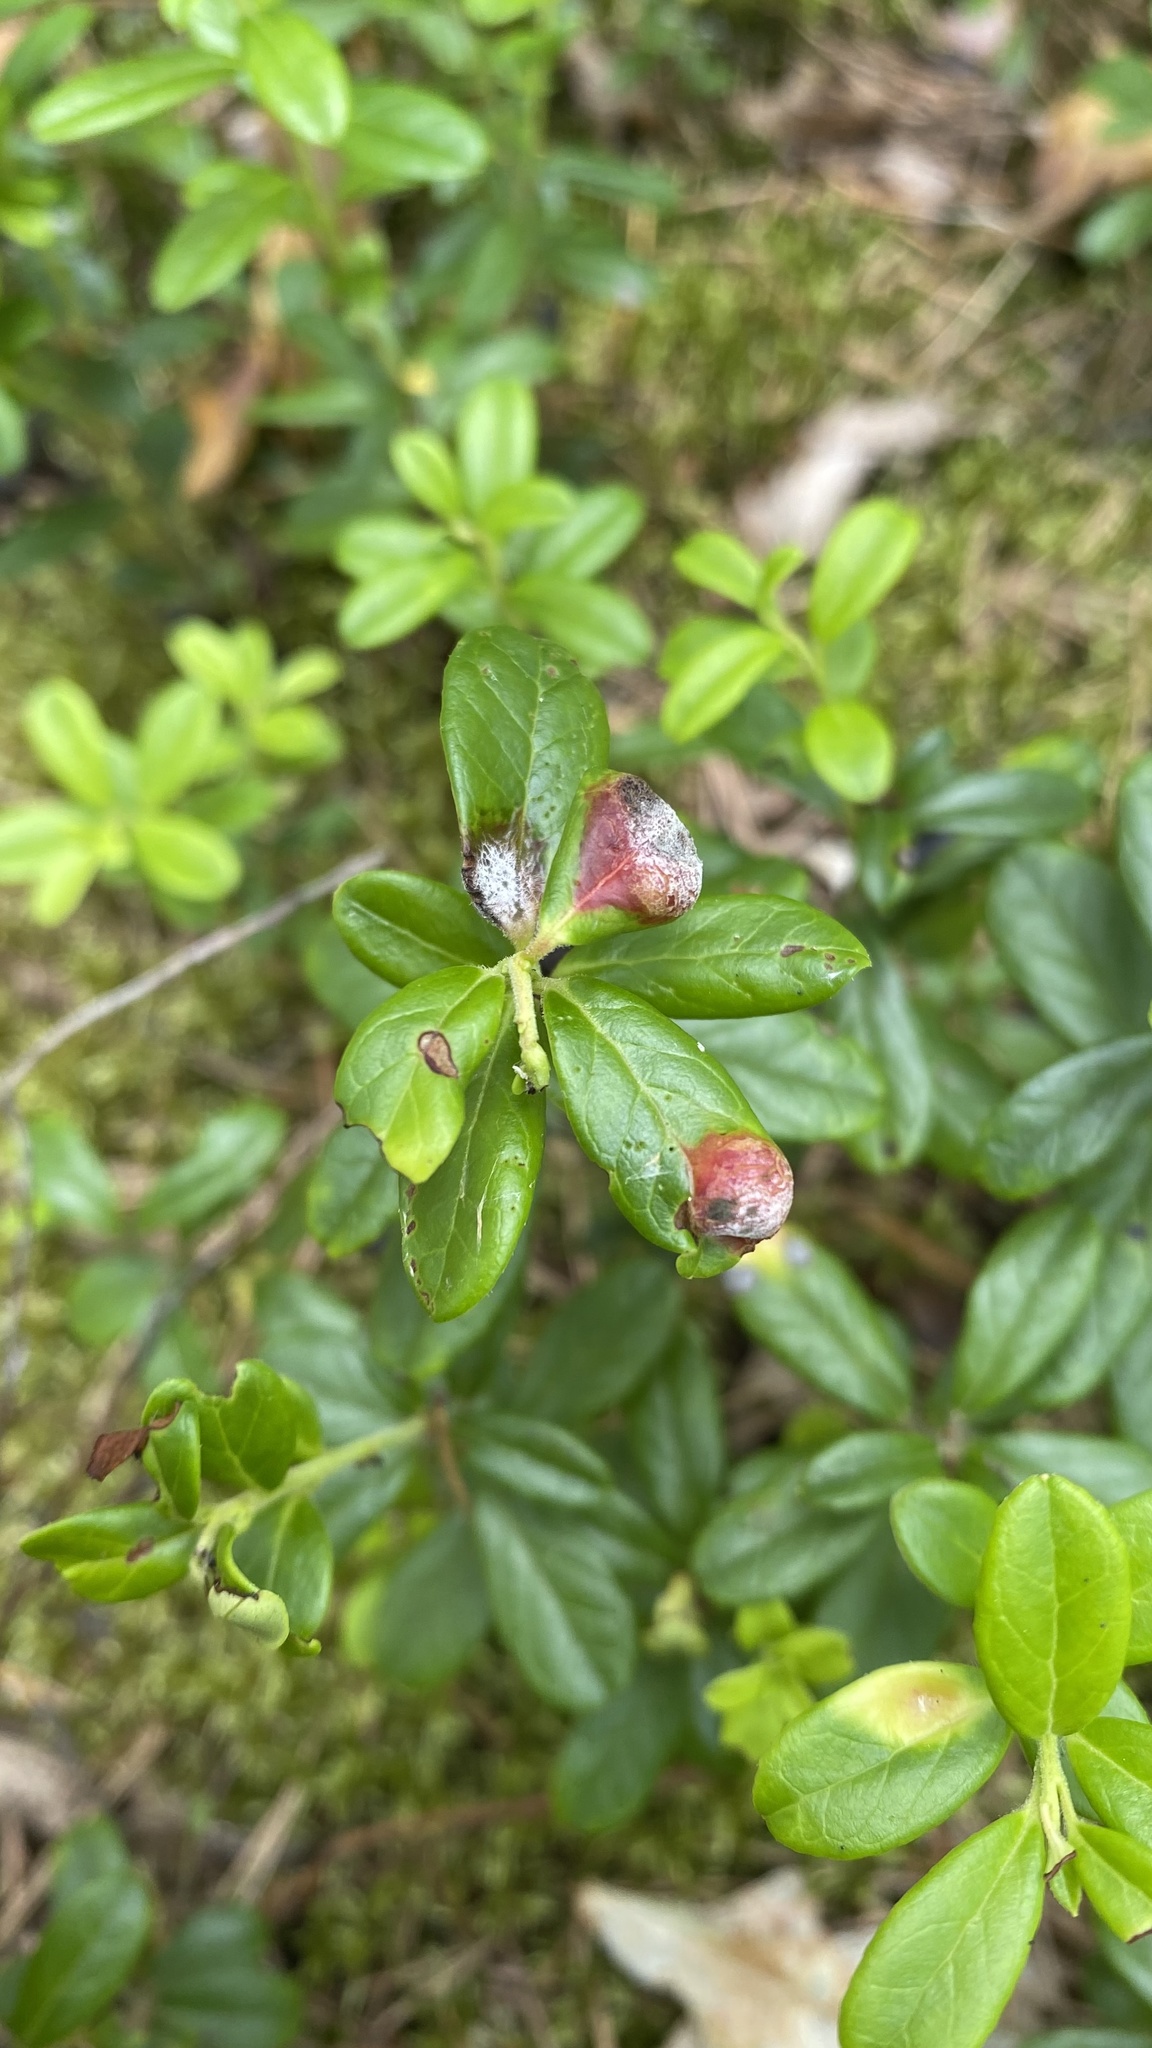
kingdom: Fungi
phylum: Basidiomycota
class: Exobasidiomycetes
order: Exobasidiales
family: Exobasidiaceae
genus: Exobasidium
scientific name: Exobasidium vaccinii
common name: Cowberry redleaf
